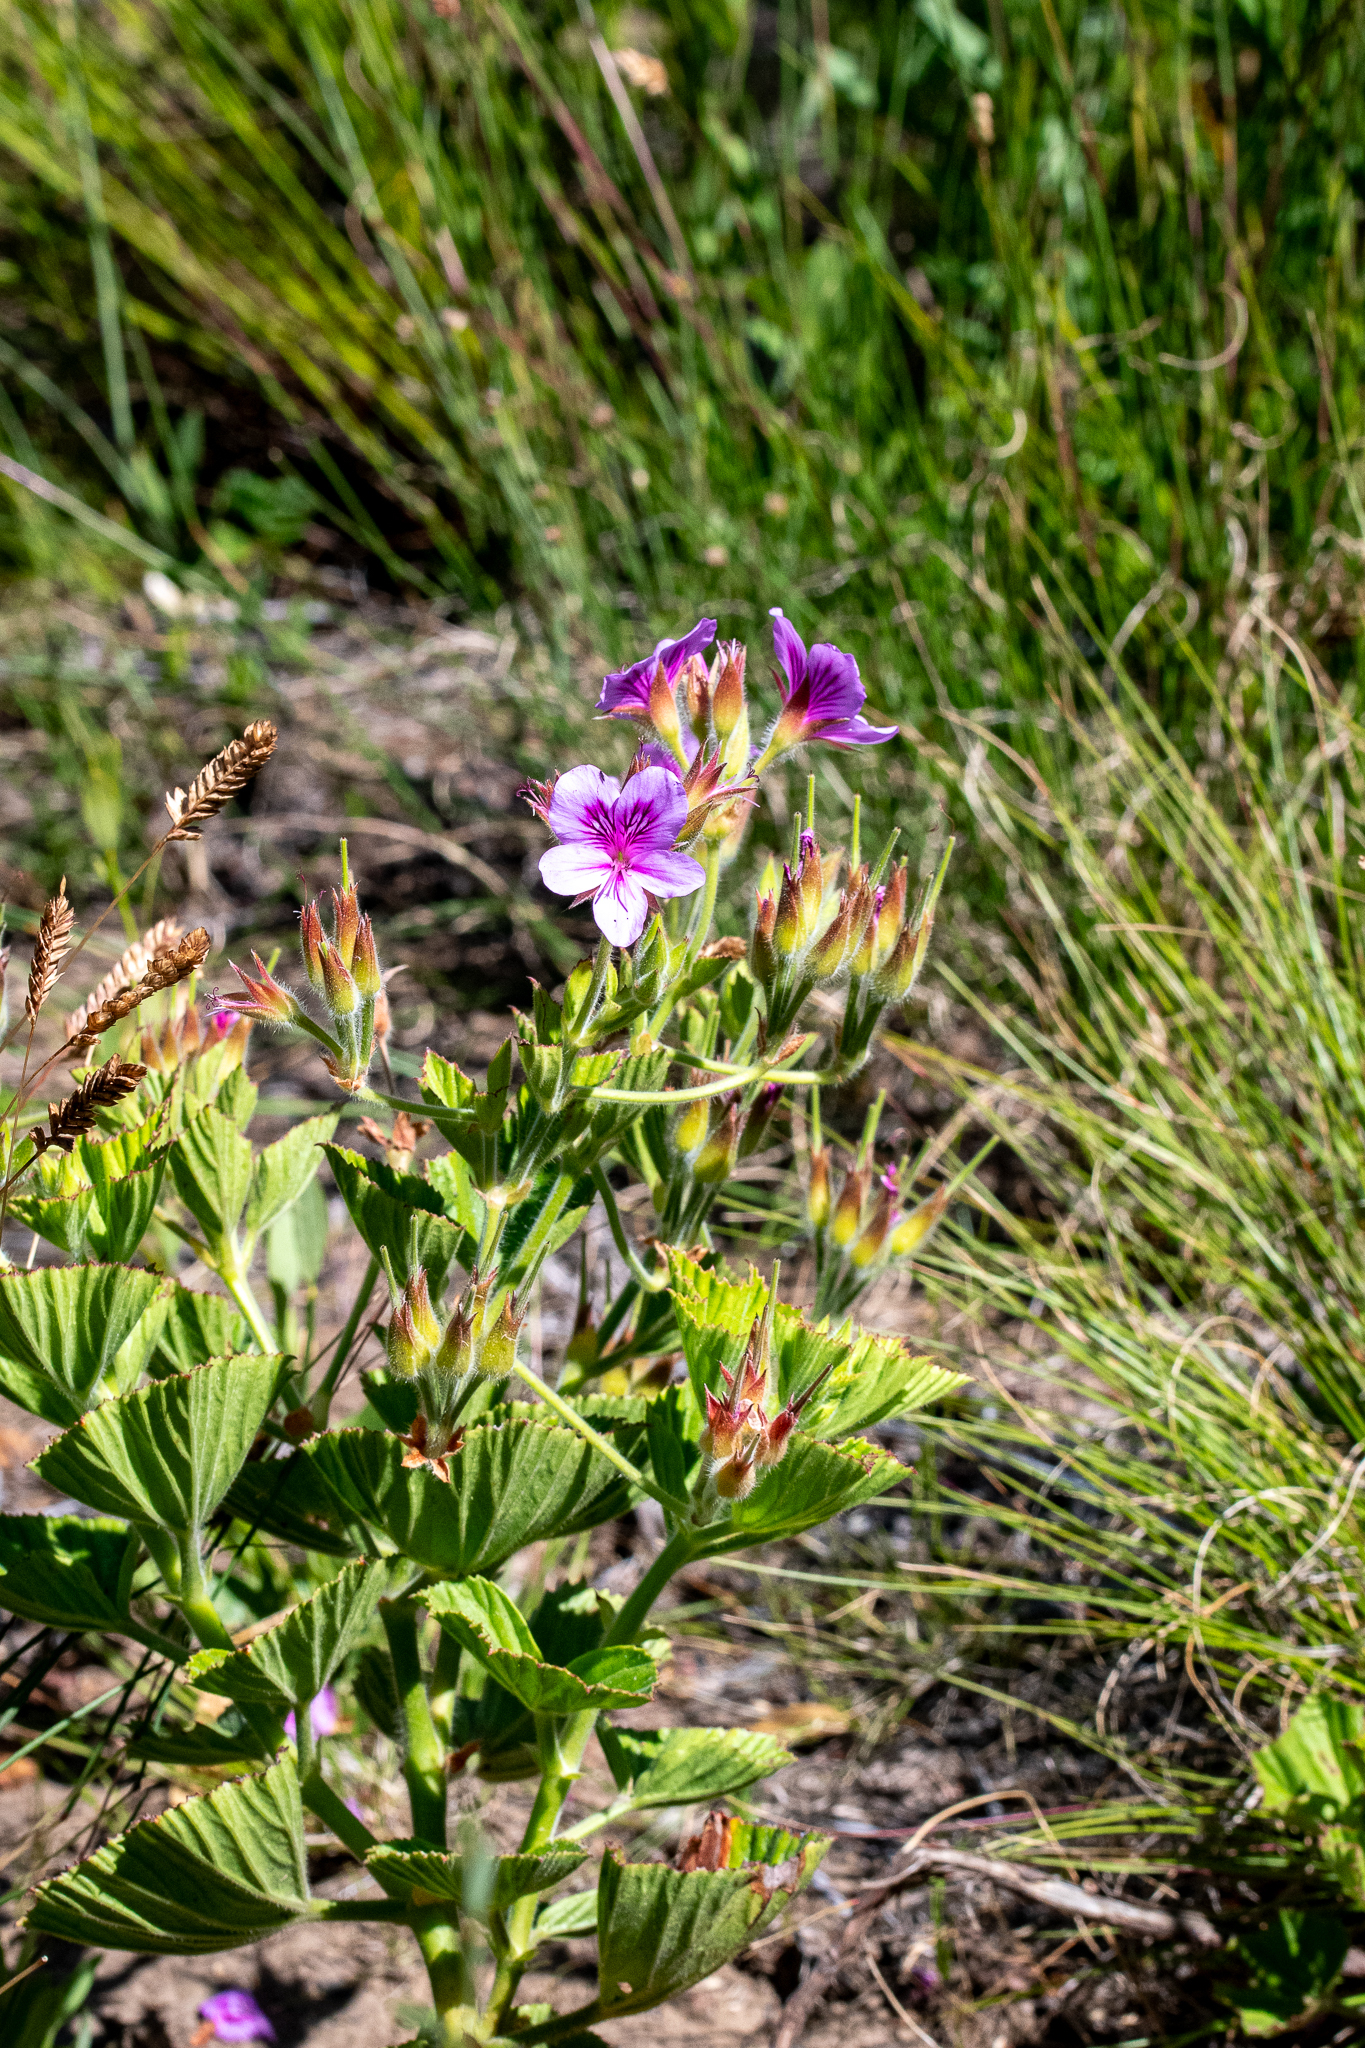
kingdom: Plantae
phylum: Tracheophyta
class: Magnoliopsida
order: Geraniales
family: Geraniaceae
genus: Pelargonium
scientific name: Pelargonium cucullatum
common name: Tree pelargonium
